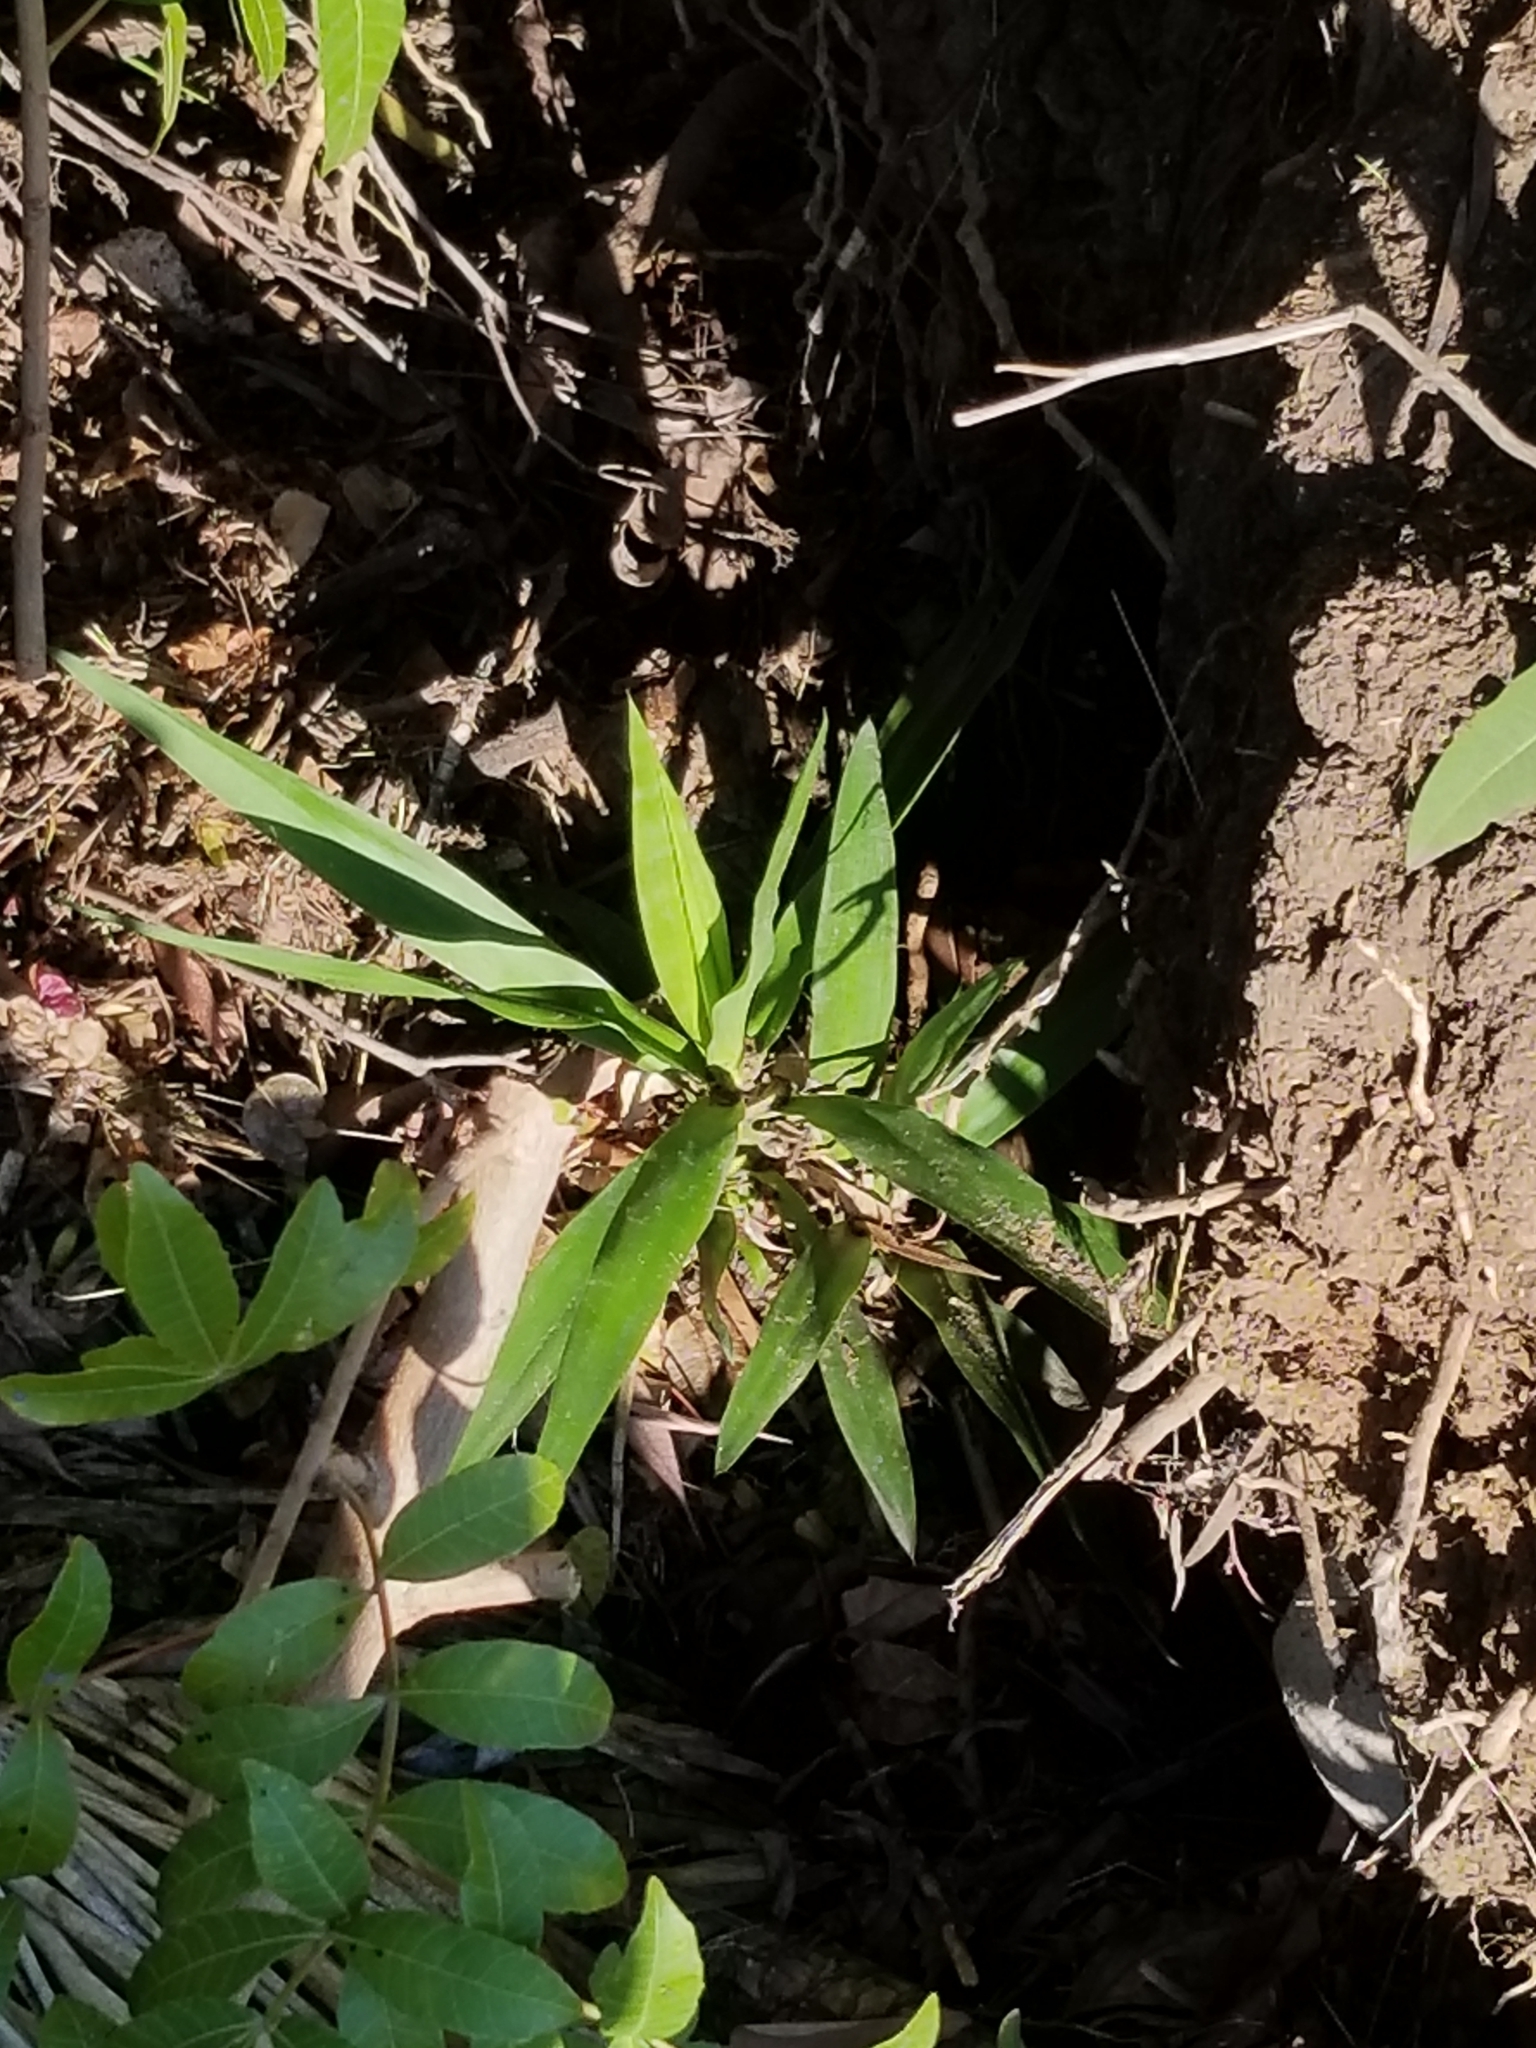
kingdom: Plantae
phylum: Tracheophyta
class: Liliopsida
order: Asparagales
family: Asparagaceae
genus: Yucca
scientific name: Yucca gigantea
